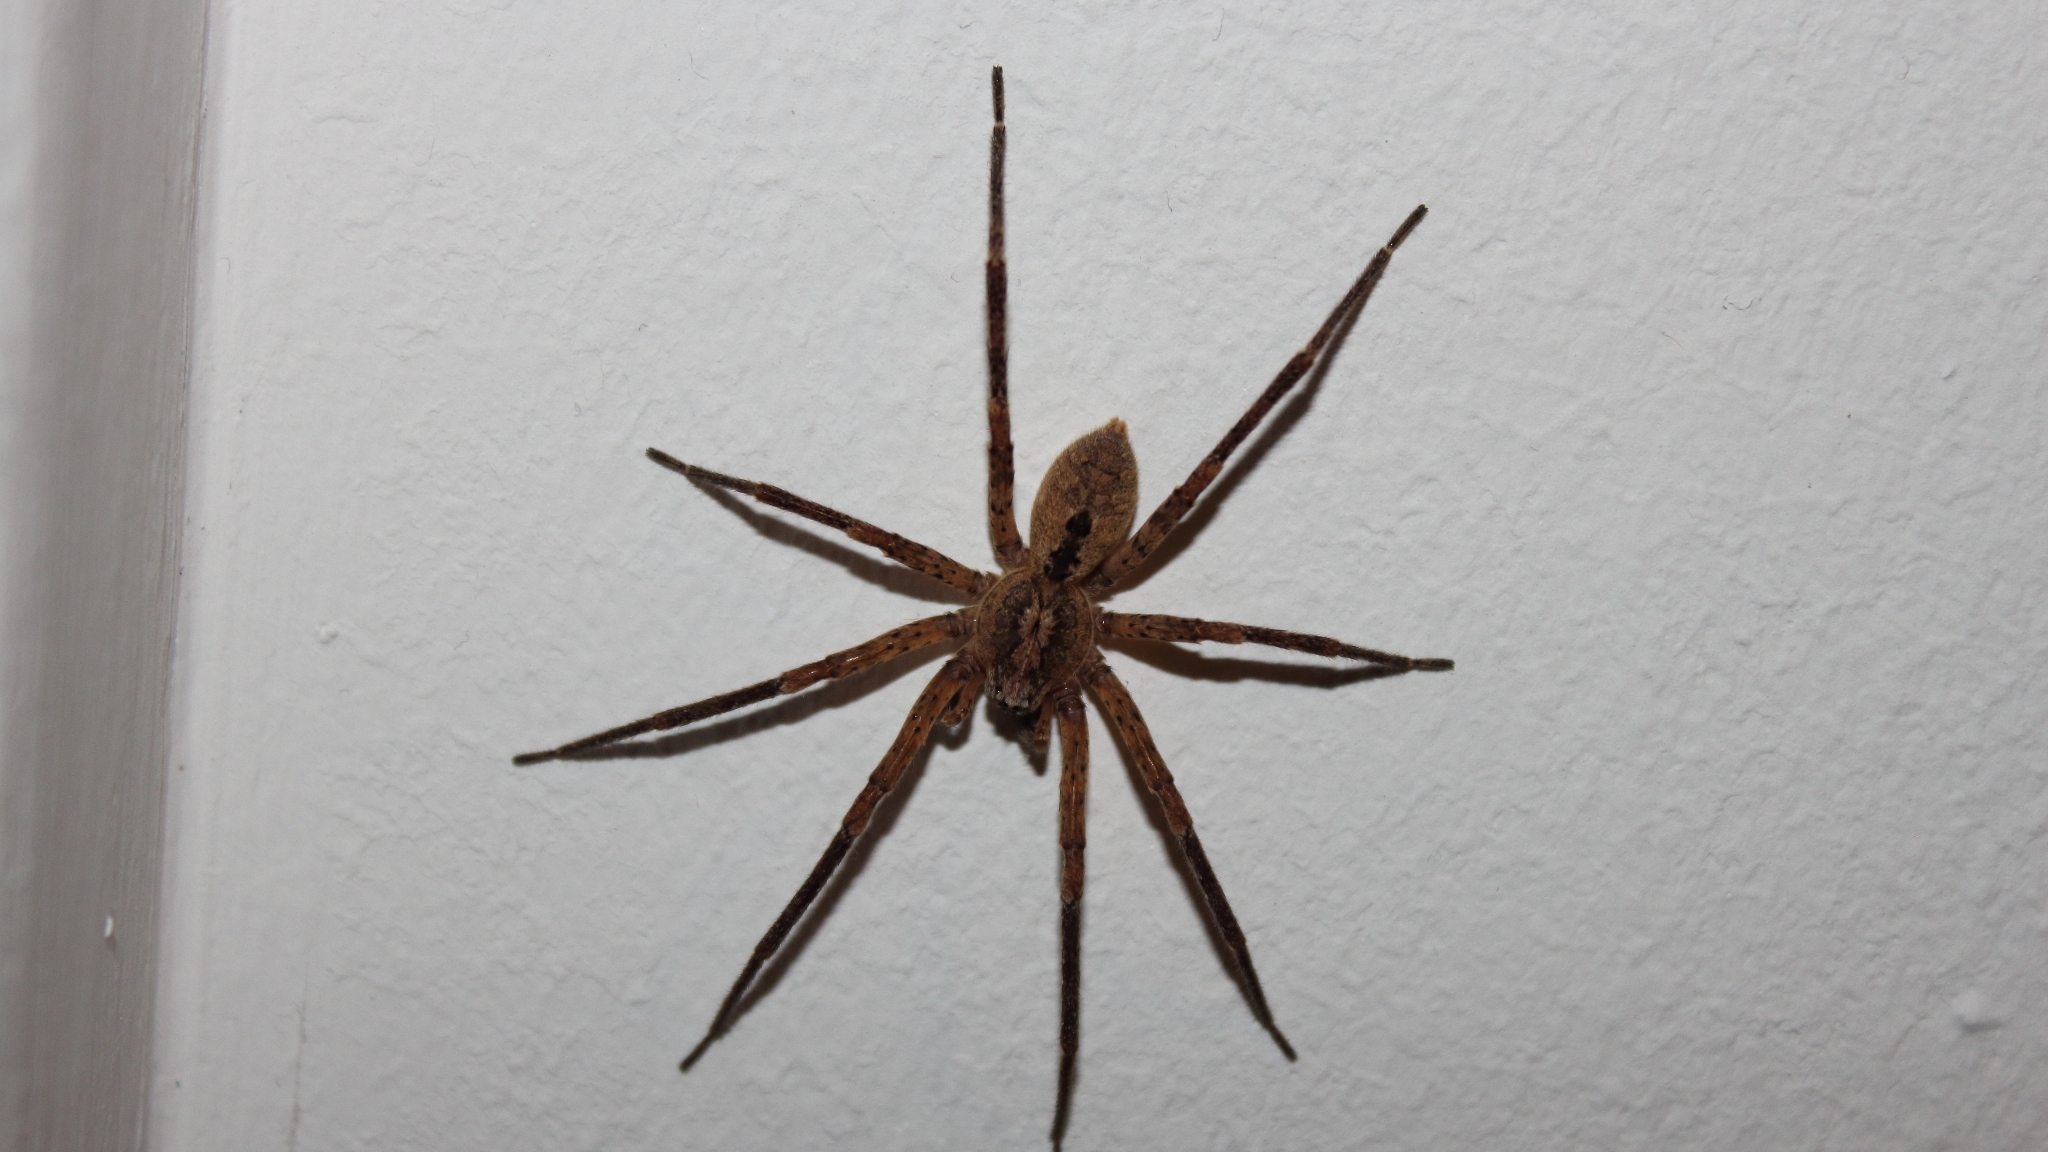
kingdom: Animalia
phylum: Arthropoda
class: Arachnida
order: Araneae
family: Zoropsidae
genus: Zoropsis
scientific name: Zoropsis spinimana
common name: Zoropsid spider
